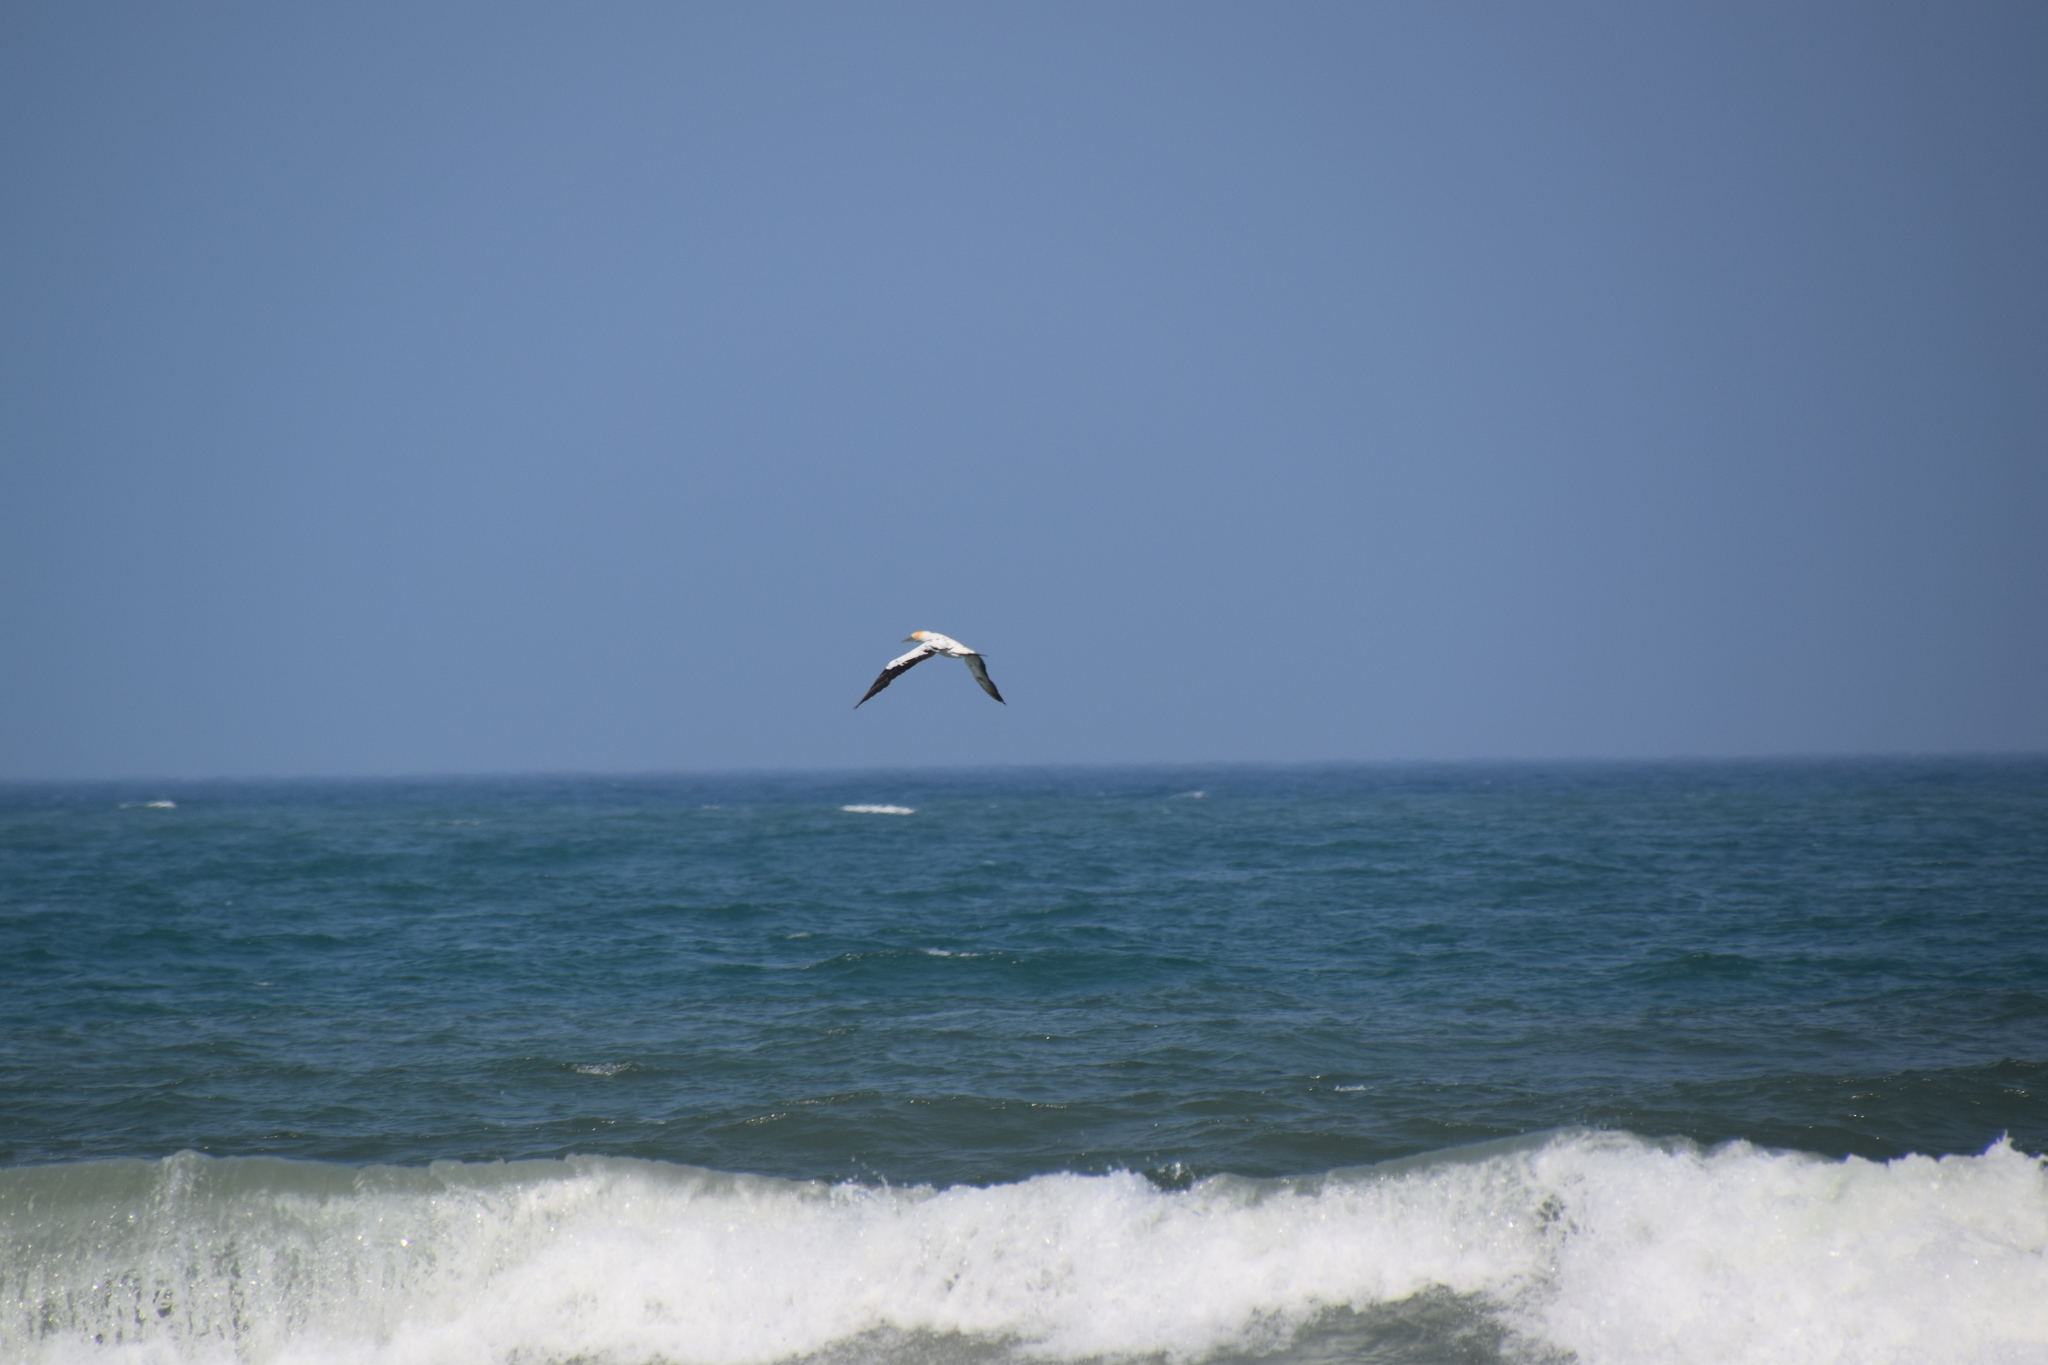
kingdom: Animalia
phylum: Chordata
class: Aves
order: Suliformes
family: Sulidae
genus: Morus
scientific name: Morus serrator
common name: Australasian gannet
